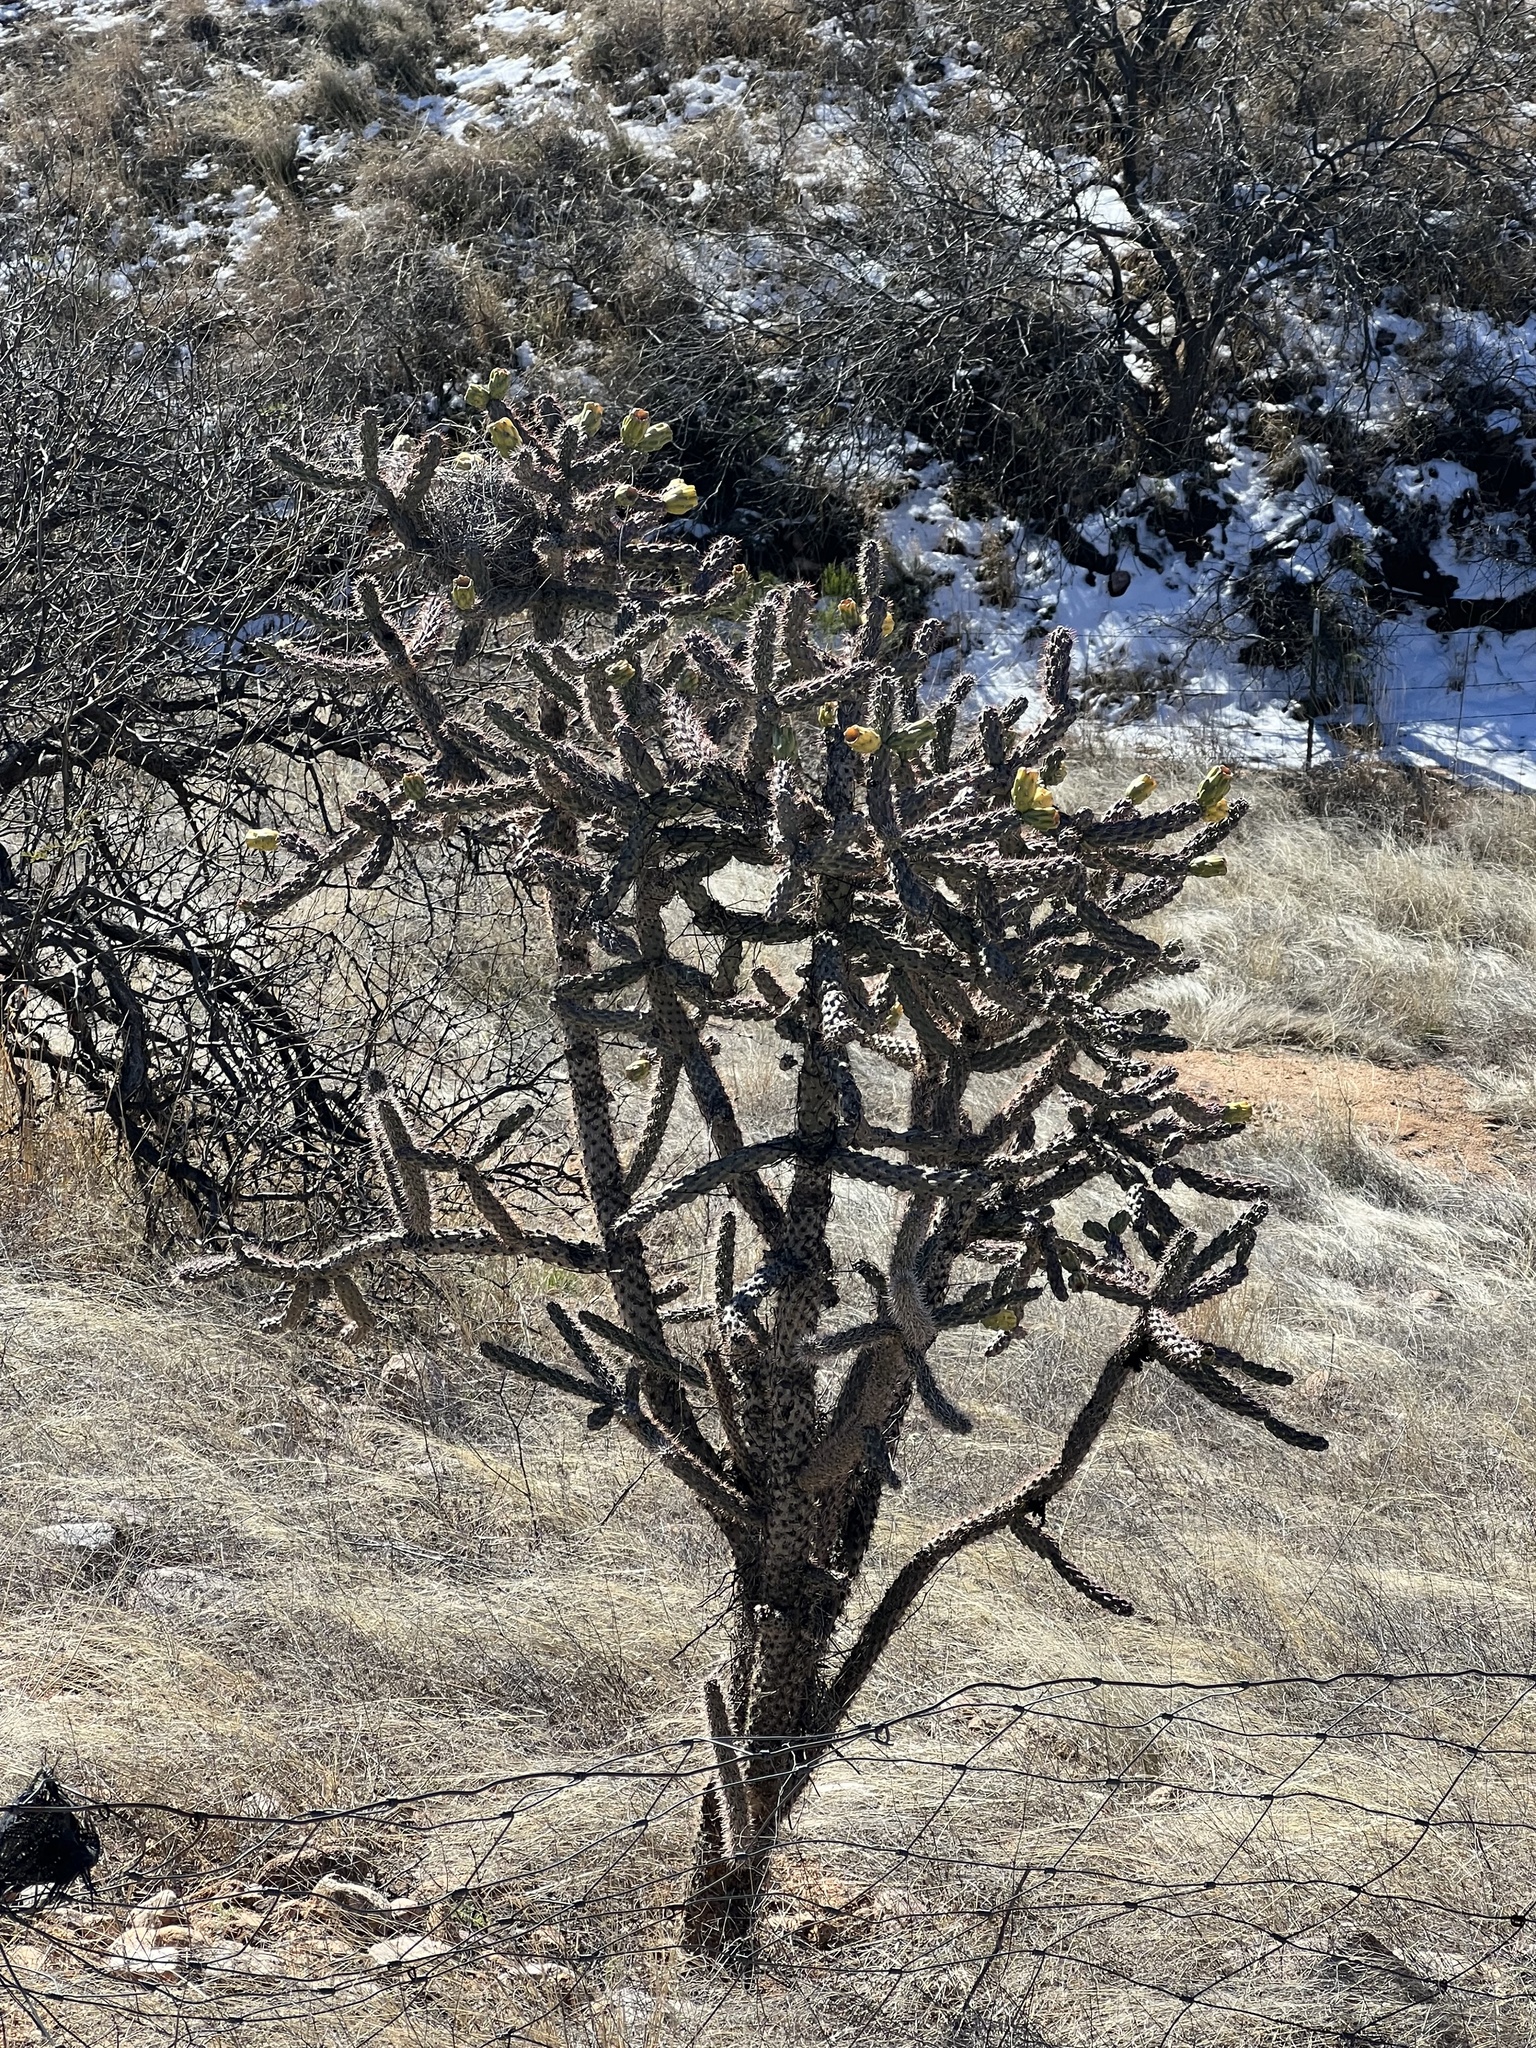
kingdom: Plantae
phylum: Tracheophyta
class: Magnoliopsida
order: Caryophyllales
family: Cactaceae
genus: Cylindropuntia
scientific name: Cylindropuntia imbricata
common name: Candelabrum cactus
